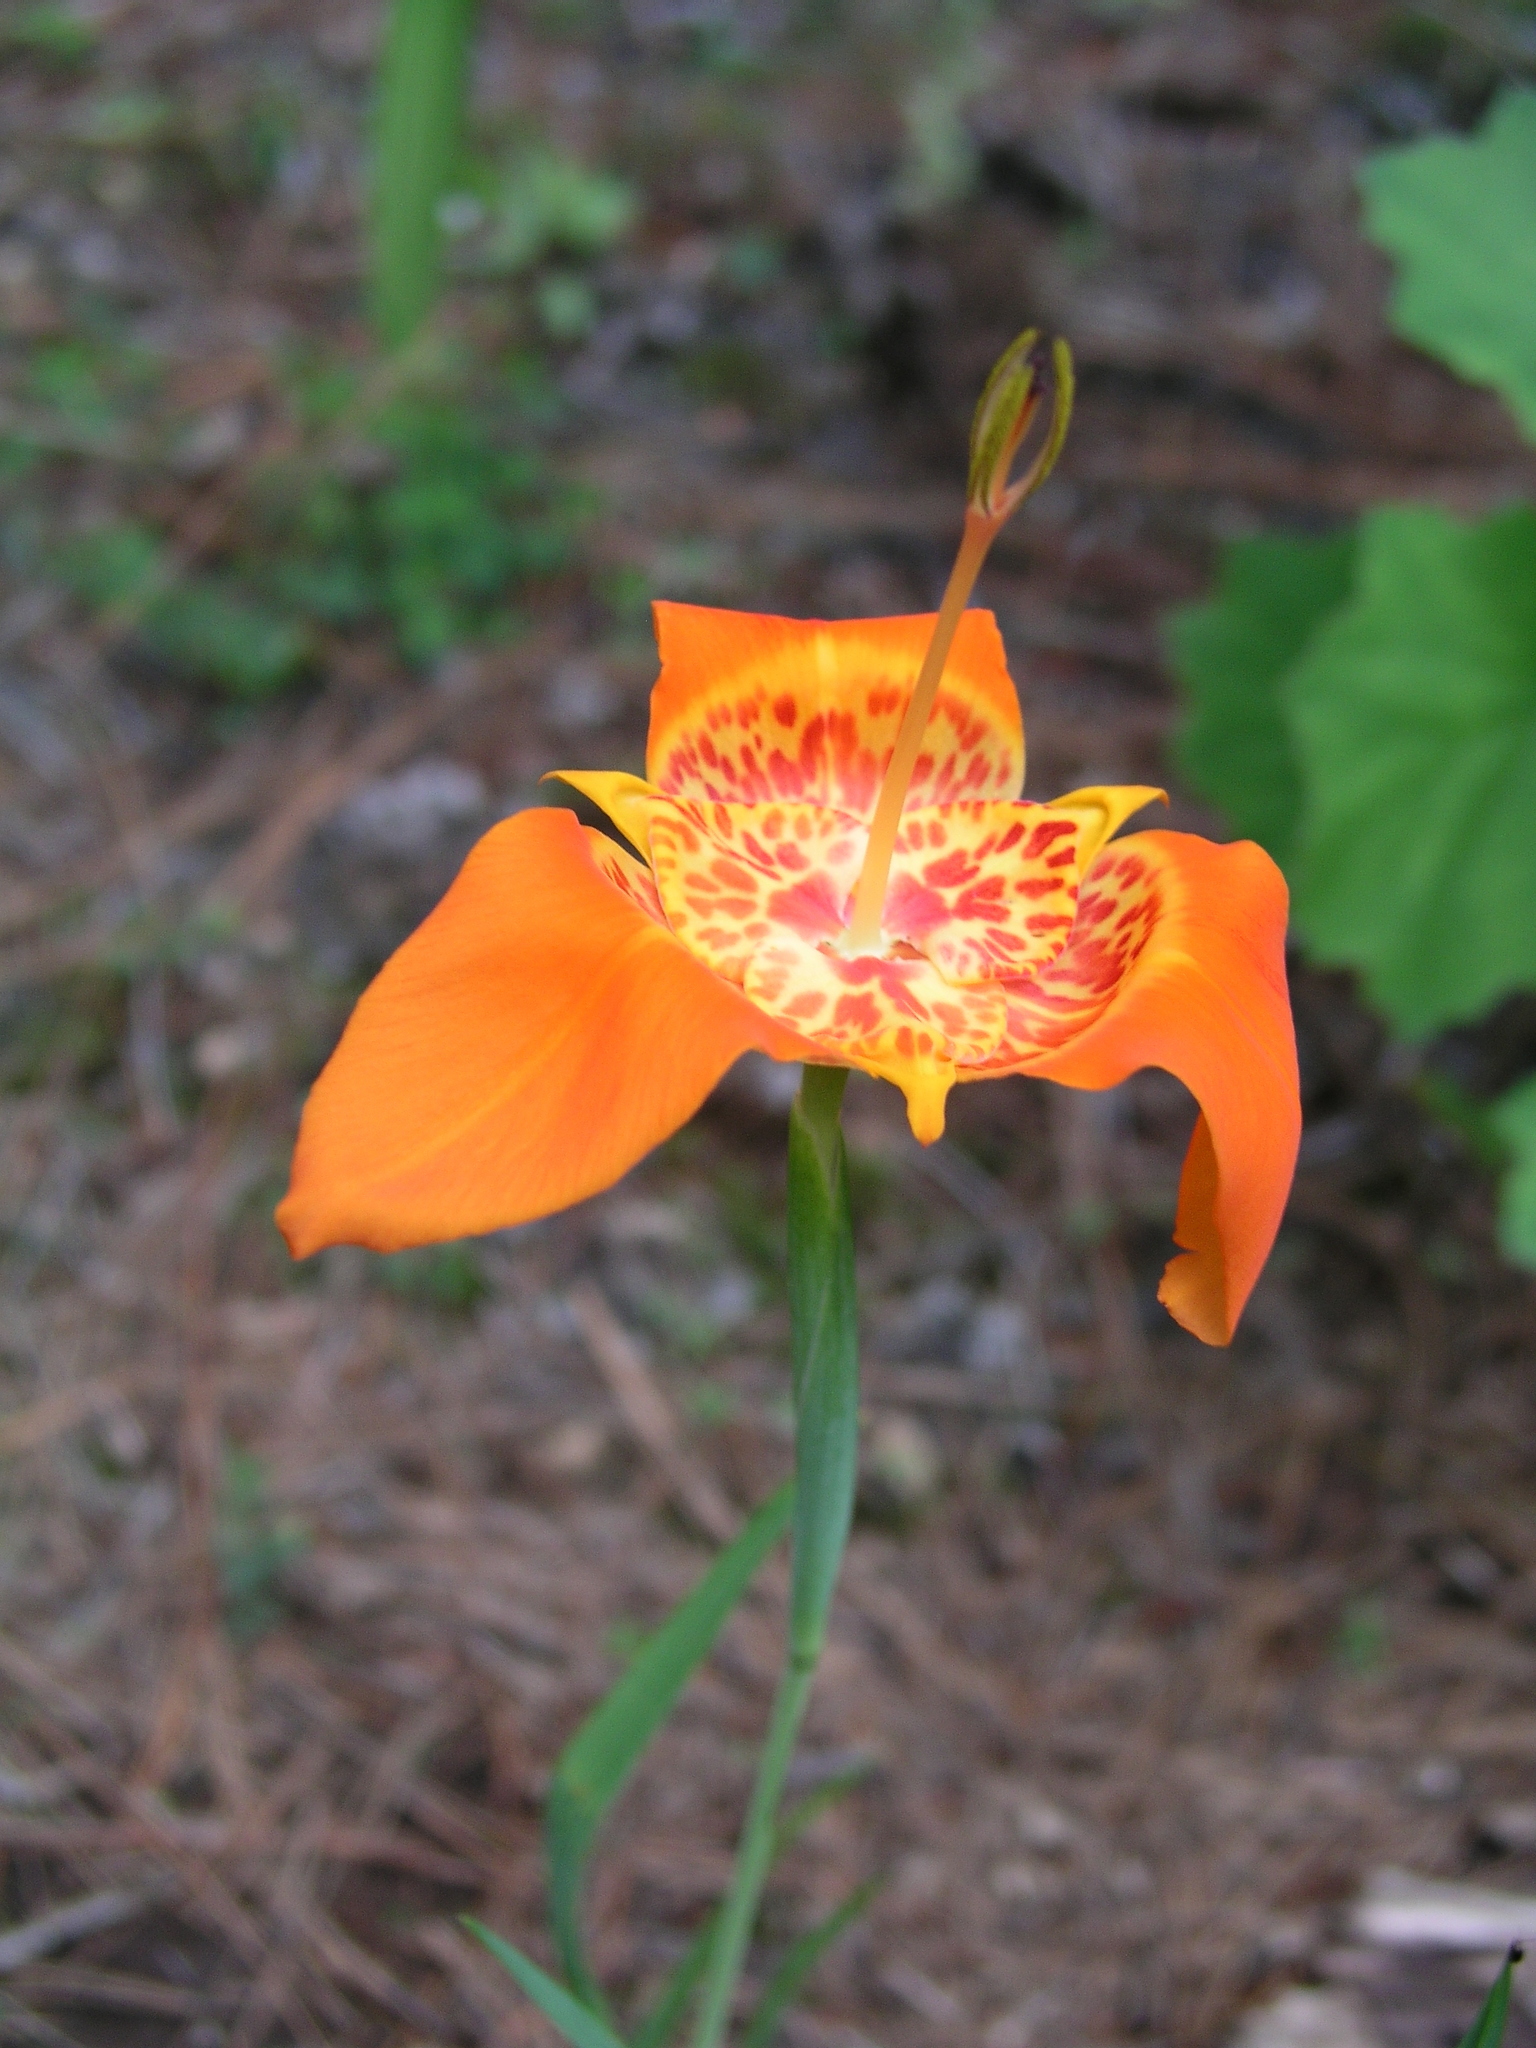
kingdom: Plantae
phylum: Tracheophyta
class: Liliopsida
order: Asparagales
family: Iridaceae
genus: Tigridia
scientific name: Tigridia pavonia
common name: Peacock-flower
